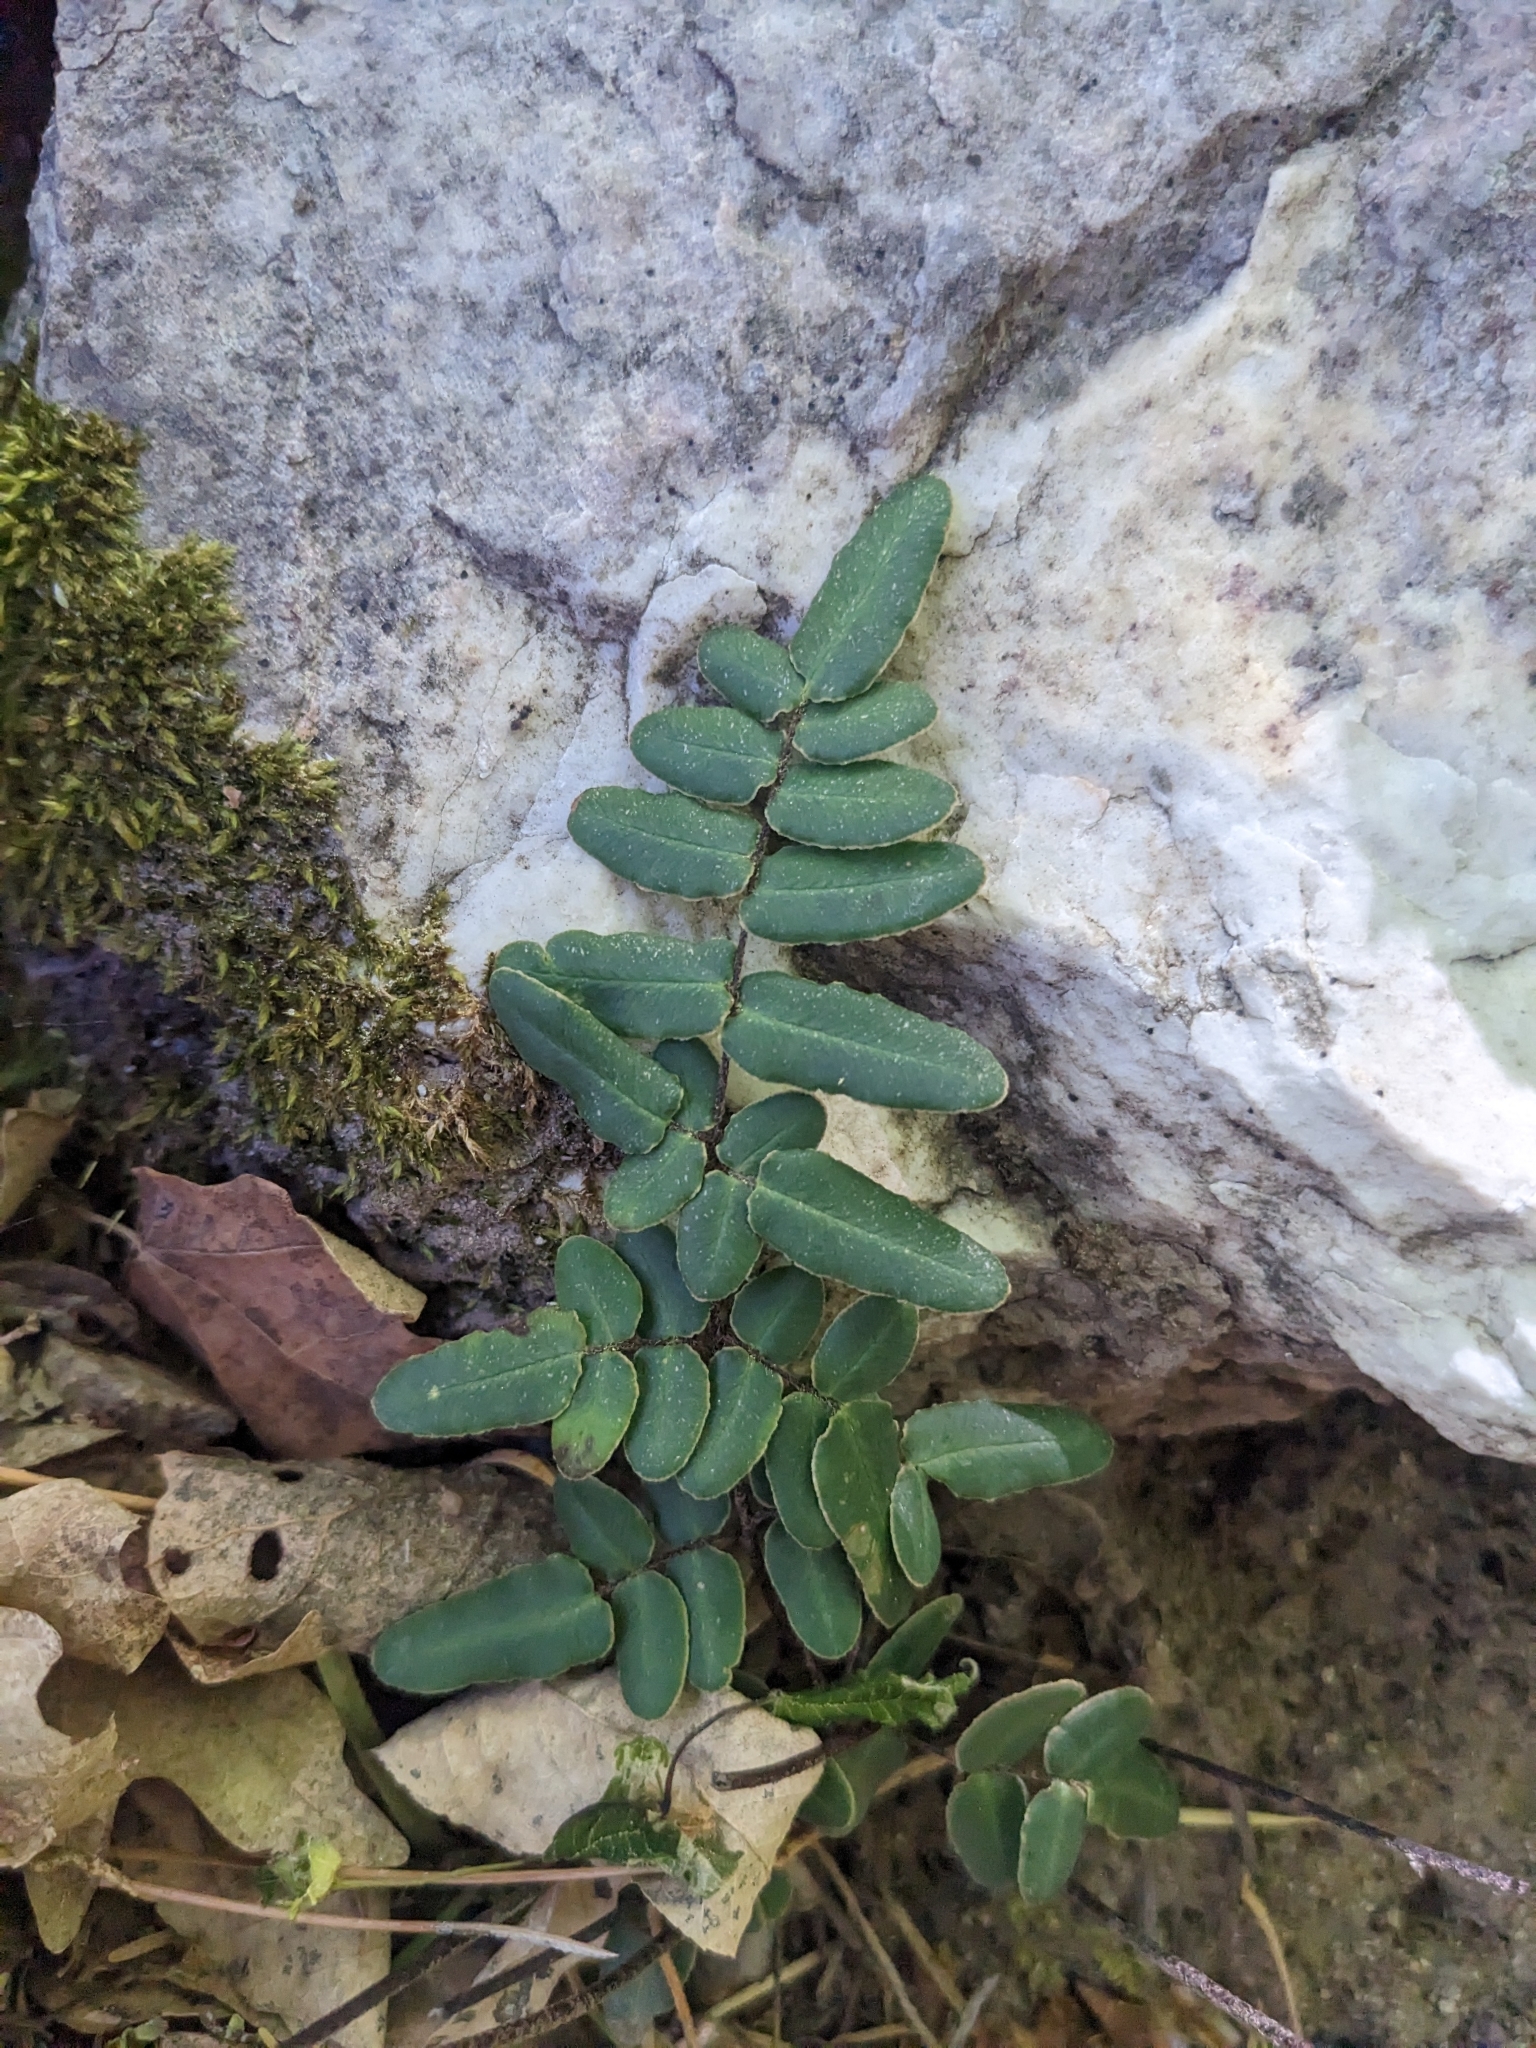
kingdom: Plantae
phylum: Tracheophyta
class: Polypodiopsida
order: Polypodiales
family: Pteridaceae
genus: Pellaea
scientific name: Pellaea atropurpurea
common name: Hairy cliffbrake
